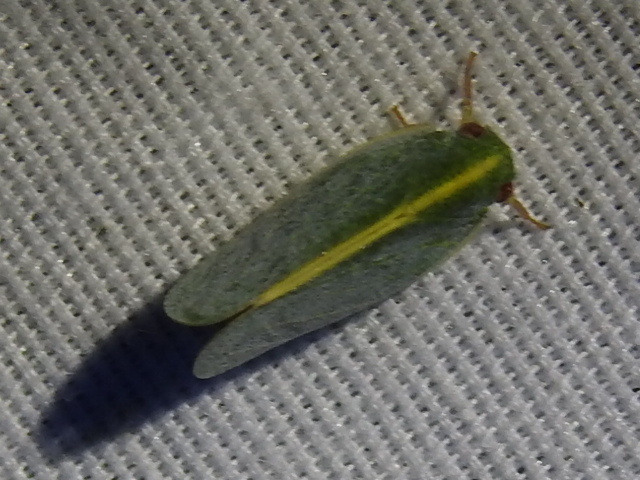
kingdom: Animalia
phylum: Arthropoda
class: Insecta
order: Hemiptera
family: Acanaloniidae
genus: Acanalonia
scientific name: Acanalonia servillei
